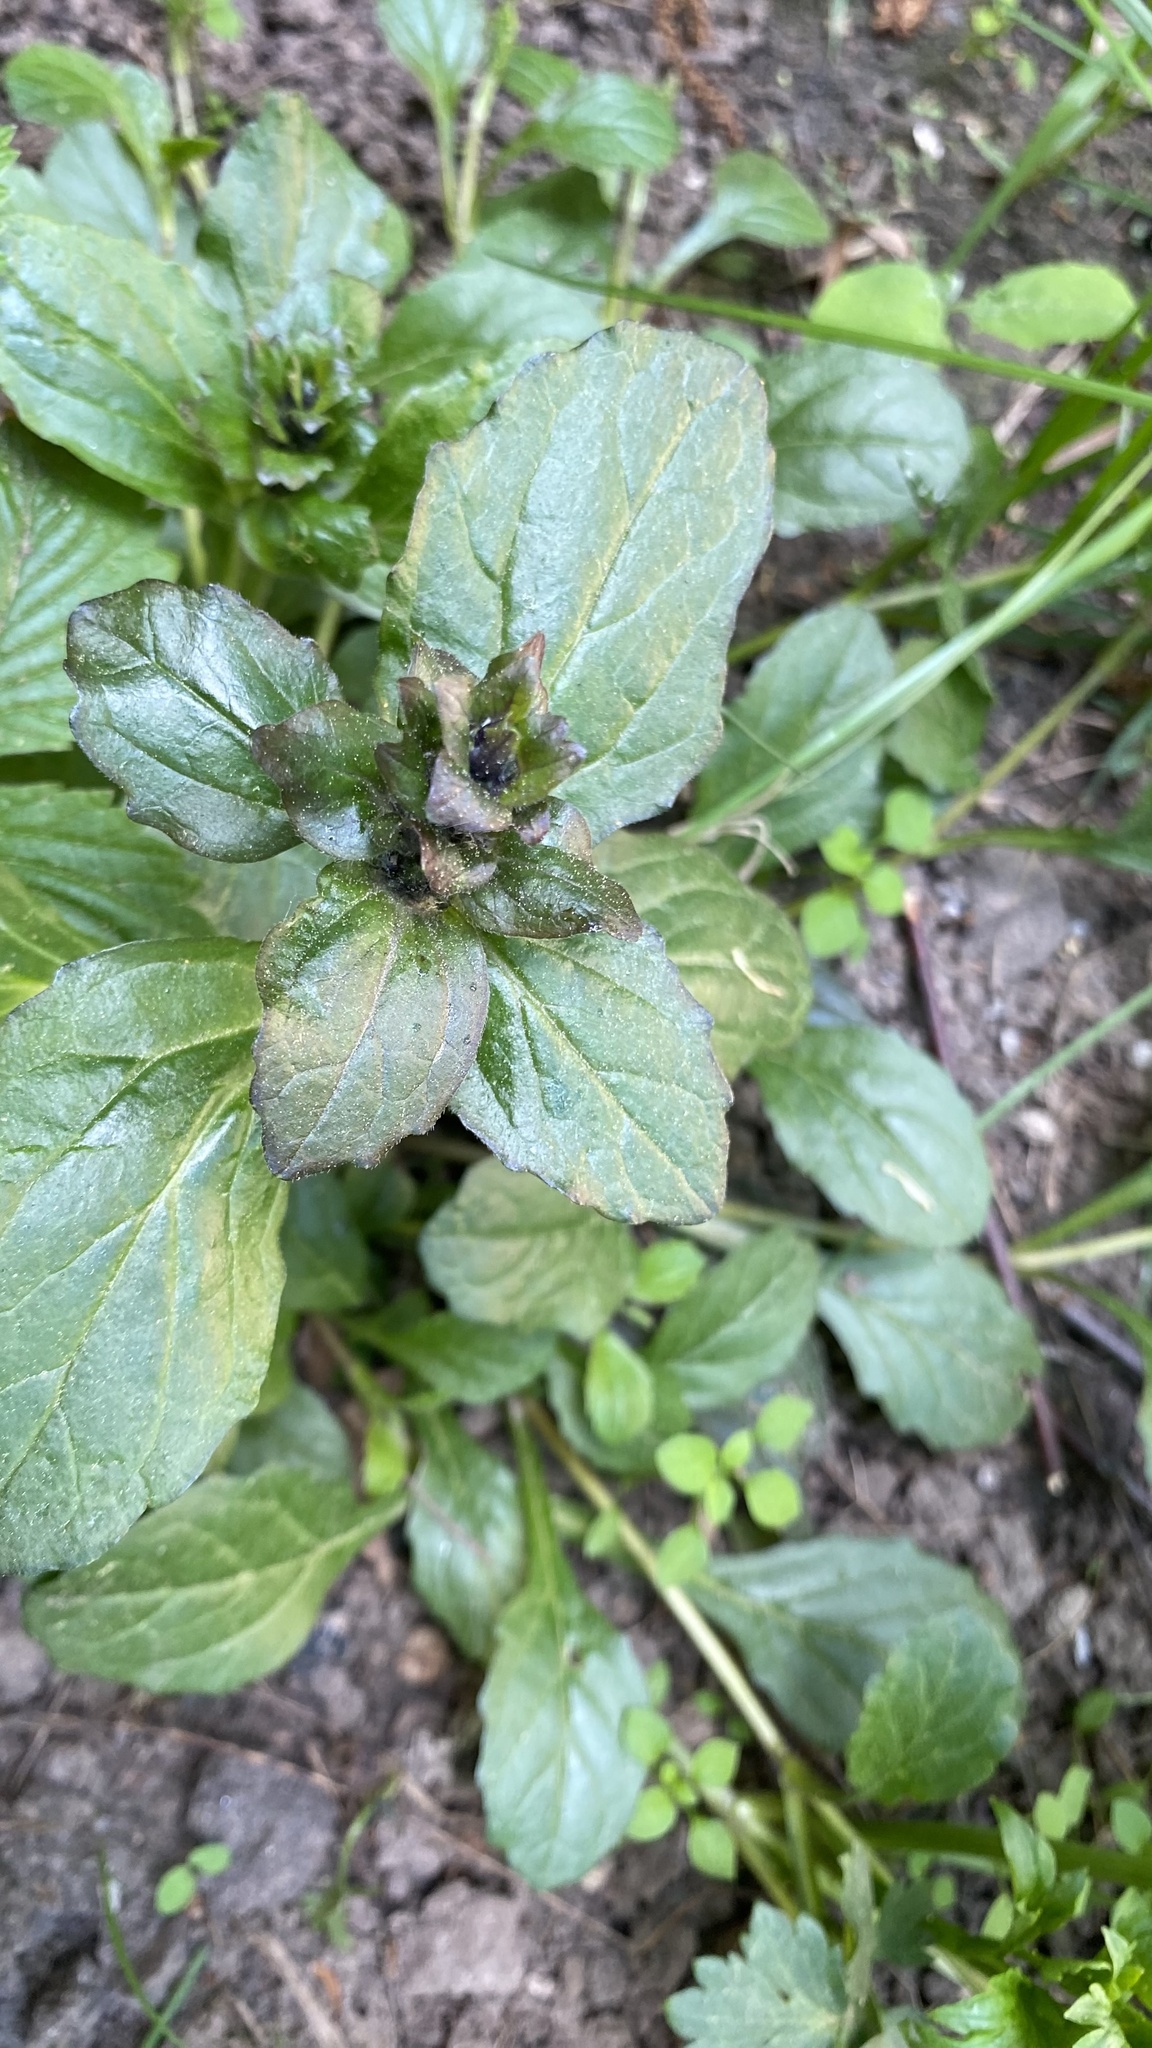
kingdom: Plantae
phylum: Tracheophyta
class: Magnoliopsida
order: Lamiales
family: Lamiaceae
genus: Ajuga
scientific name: Ajuga reptans
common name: Bugle
